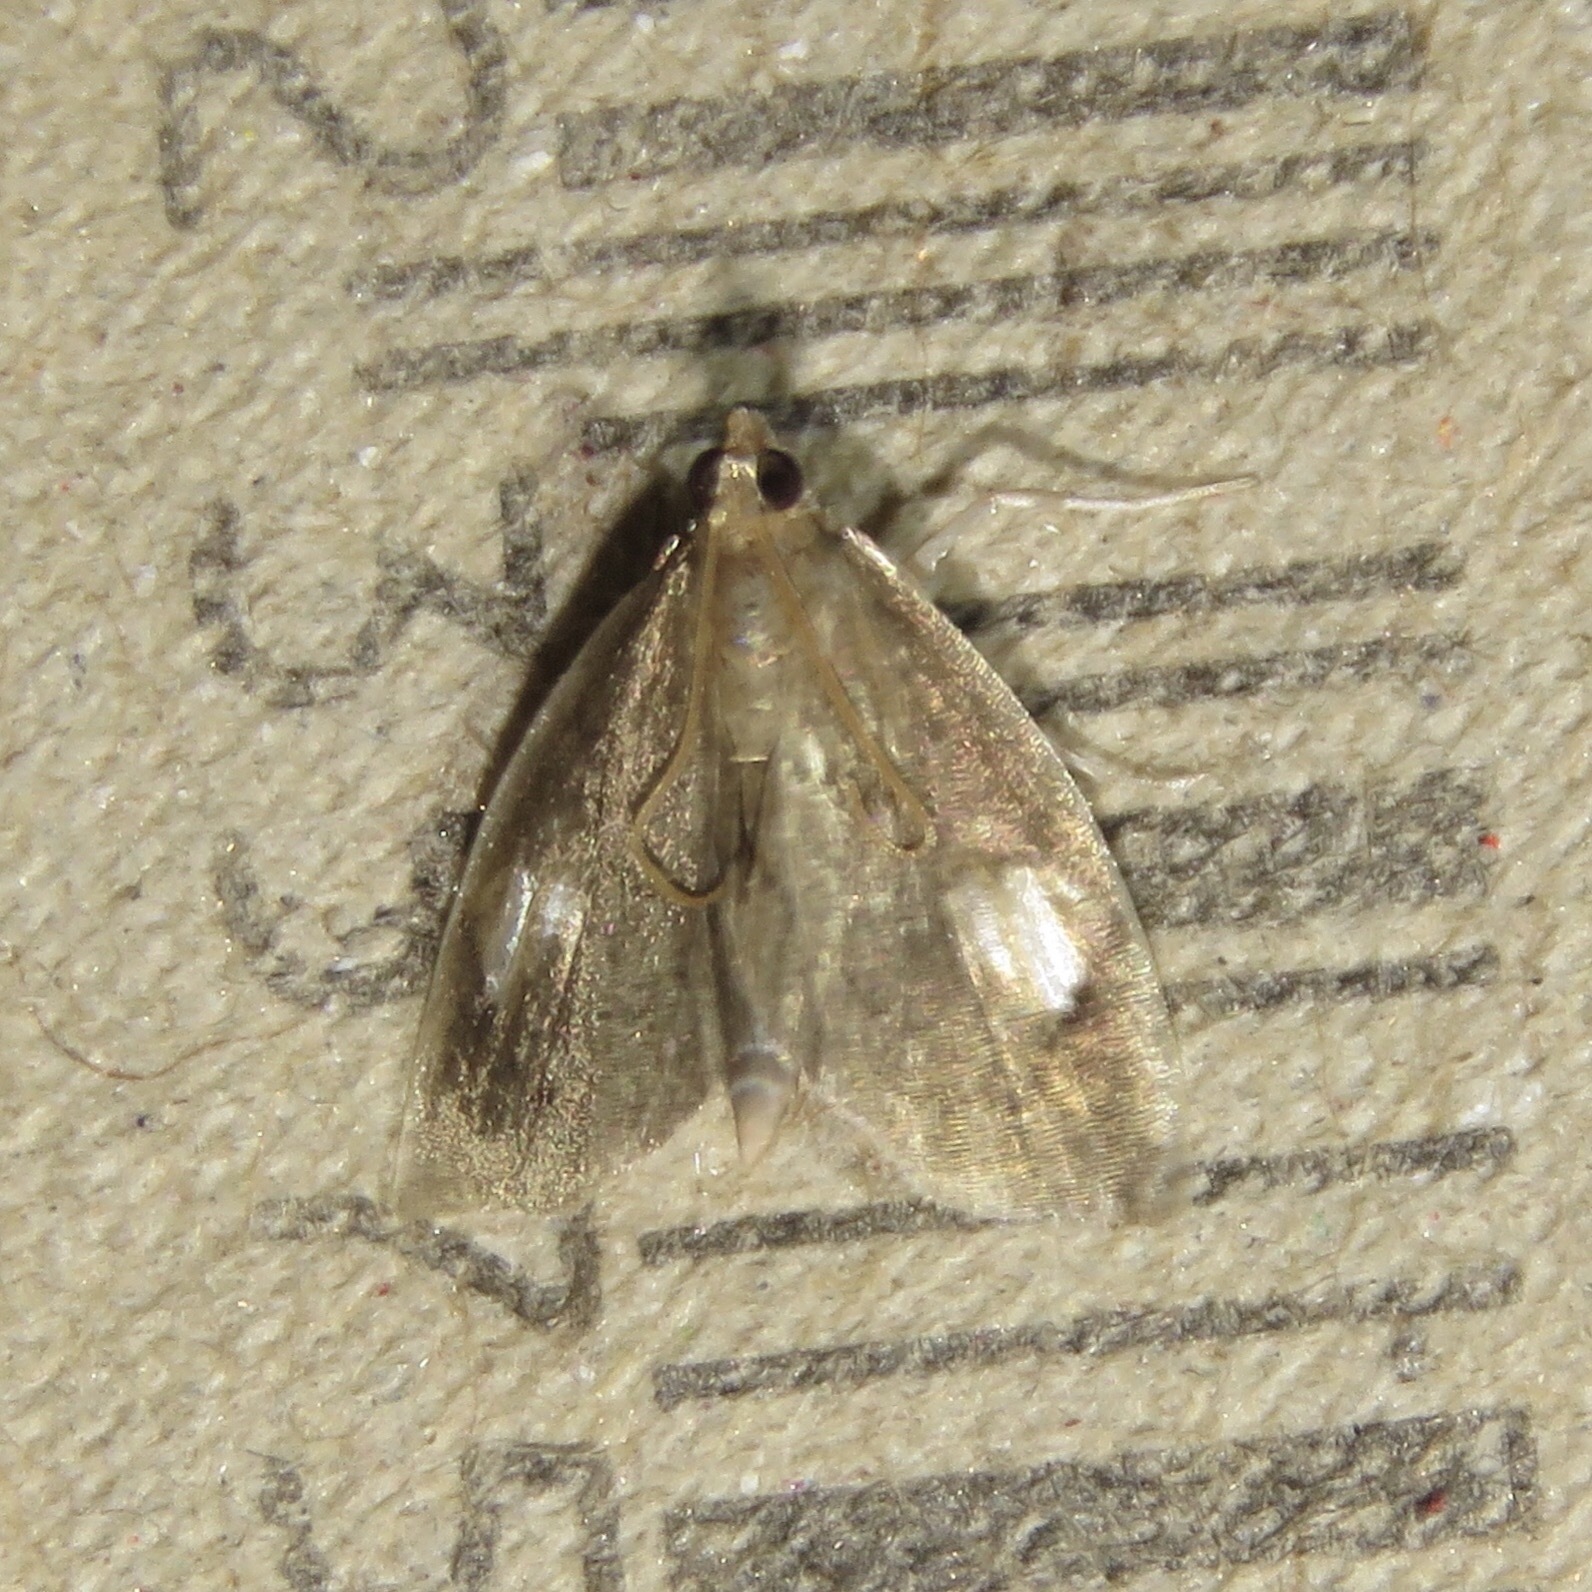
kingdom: Animalia
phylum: Arthropoda
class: Insecta
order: Lepidoptera
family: Crambidae
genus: Perispasta
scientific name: Perispasta caeculalis
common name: Titian peale's moth
